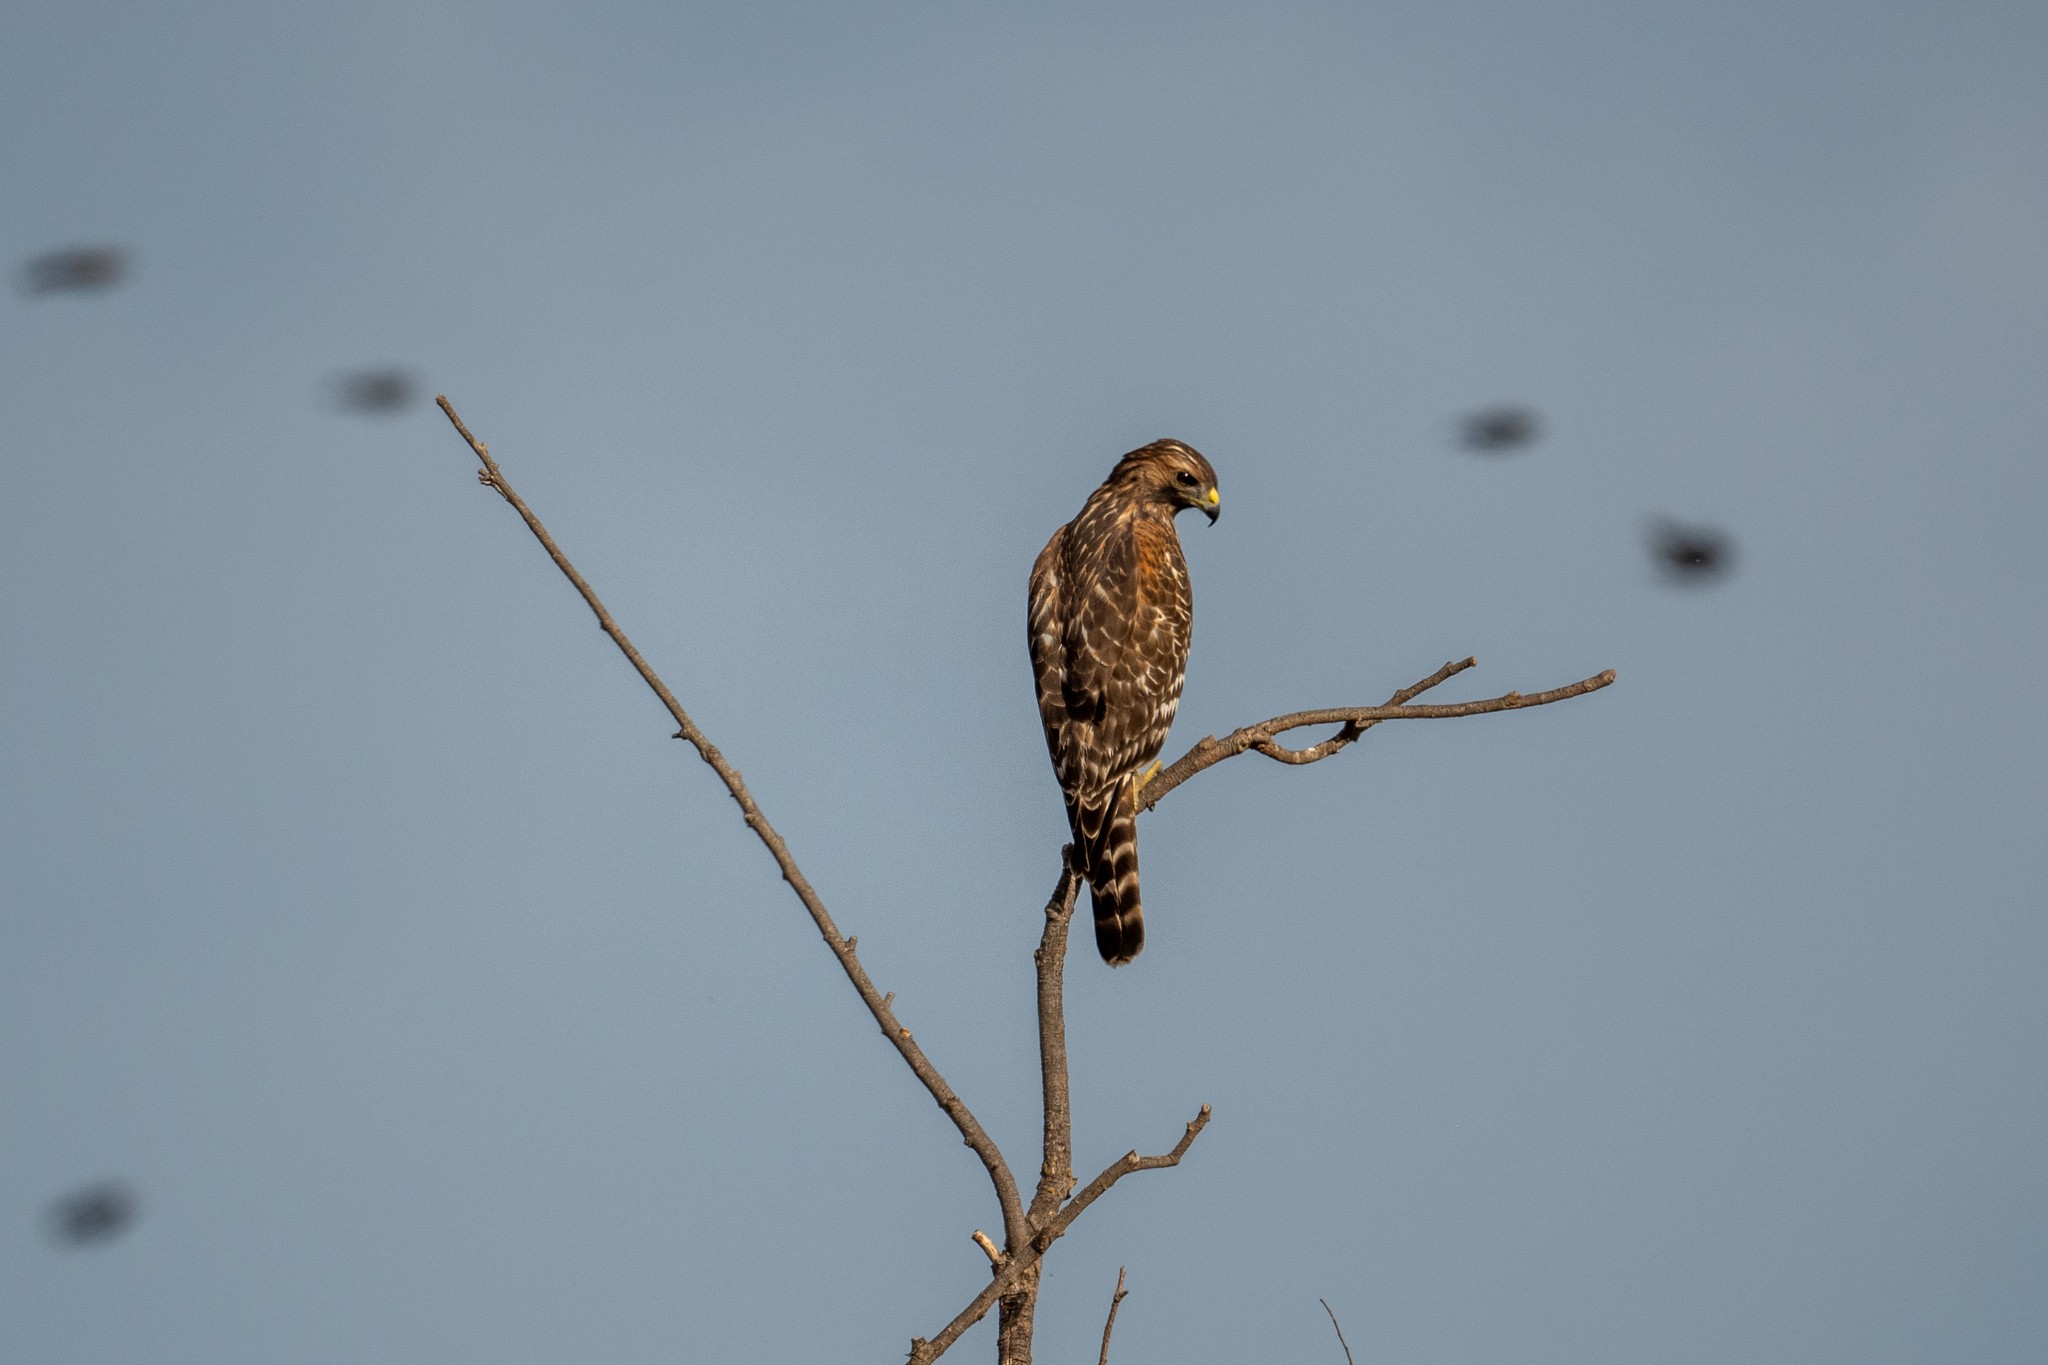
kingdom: Animalia
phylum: Chordata
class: Aves
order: Accipitriformes
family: Accipitridae
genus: Buteo
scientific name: Buteo lineatus
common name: Red-shouldered hawk
